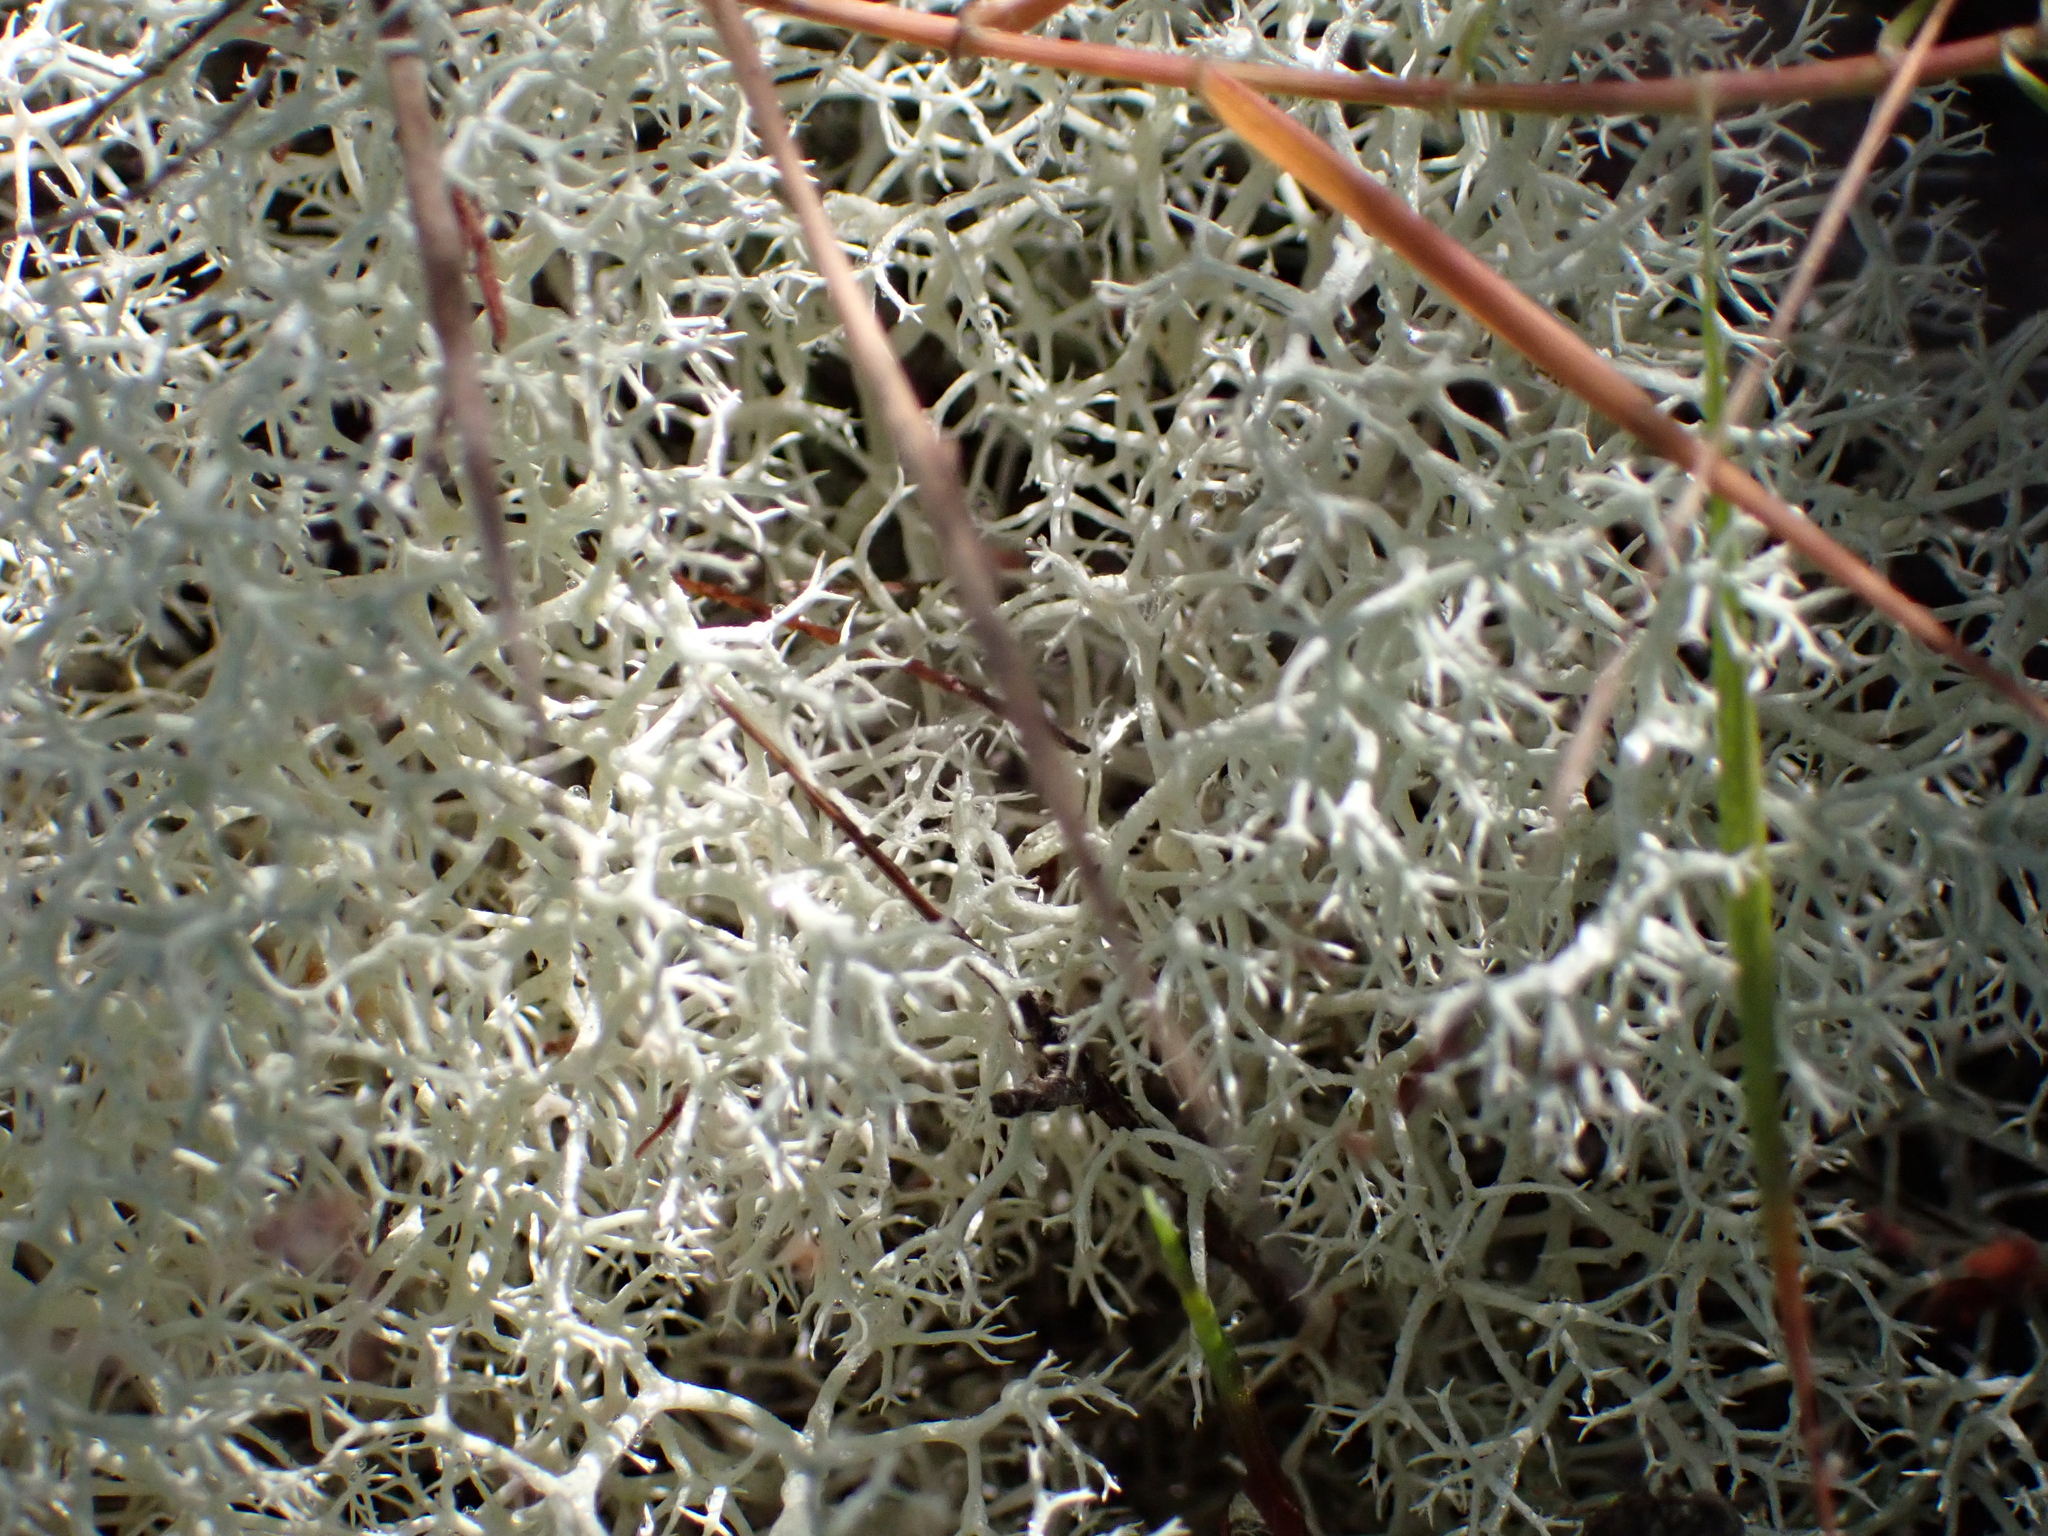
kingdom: Fungi
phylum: Ascomycota
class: Lecanoromycetes
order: Lecanorales
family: Cladoniaceae
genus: Cladonia
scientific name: Cladonia confusa
